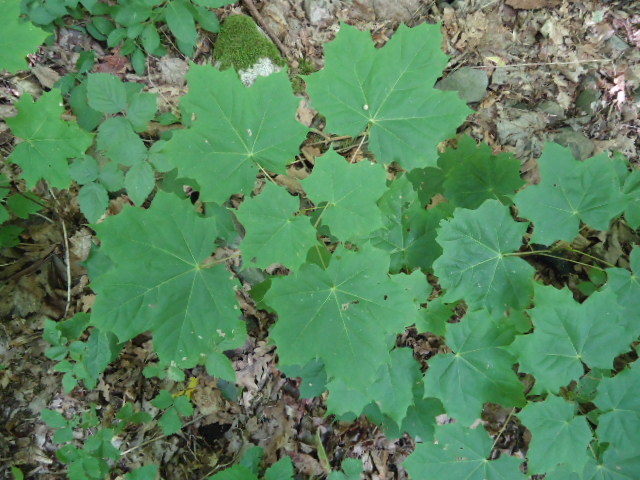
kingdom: Plantae
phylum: Tracheophyta
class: Magnoliopsida
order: Sapindales
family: Sapindaceae
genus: Acer
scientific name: Acer platanoides
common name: Norway maple
